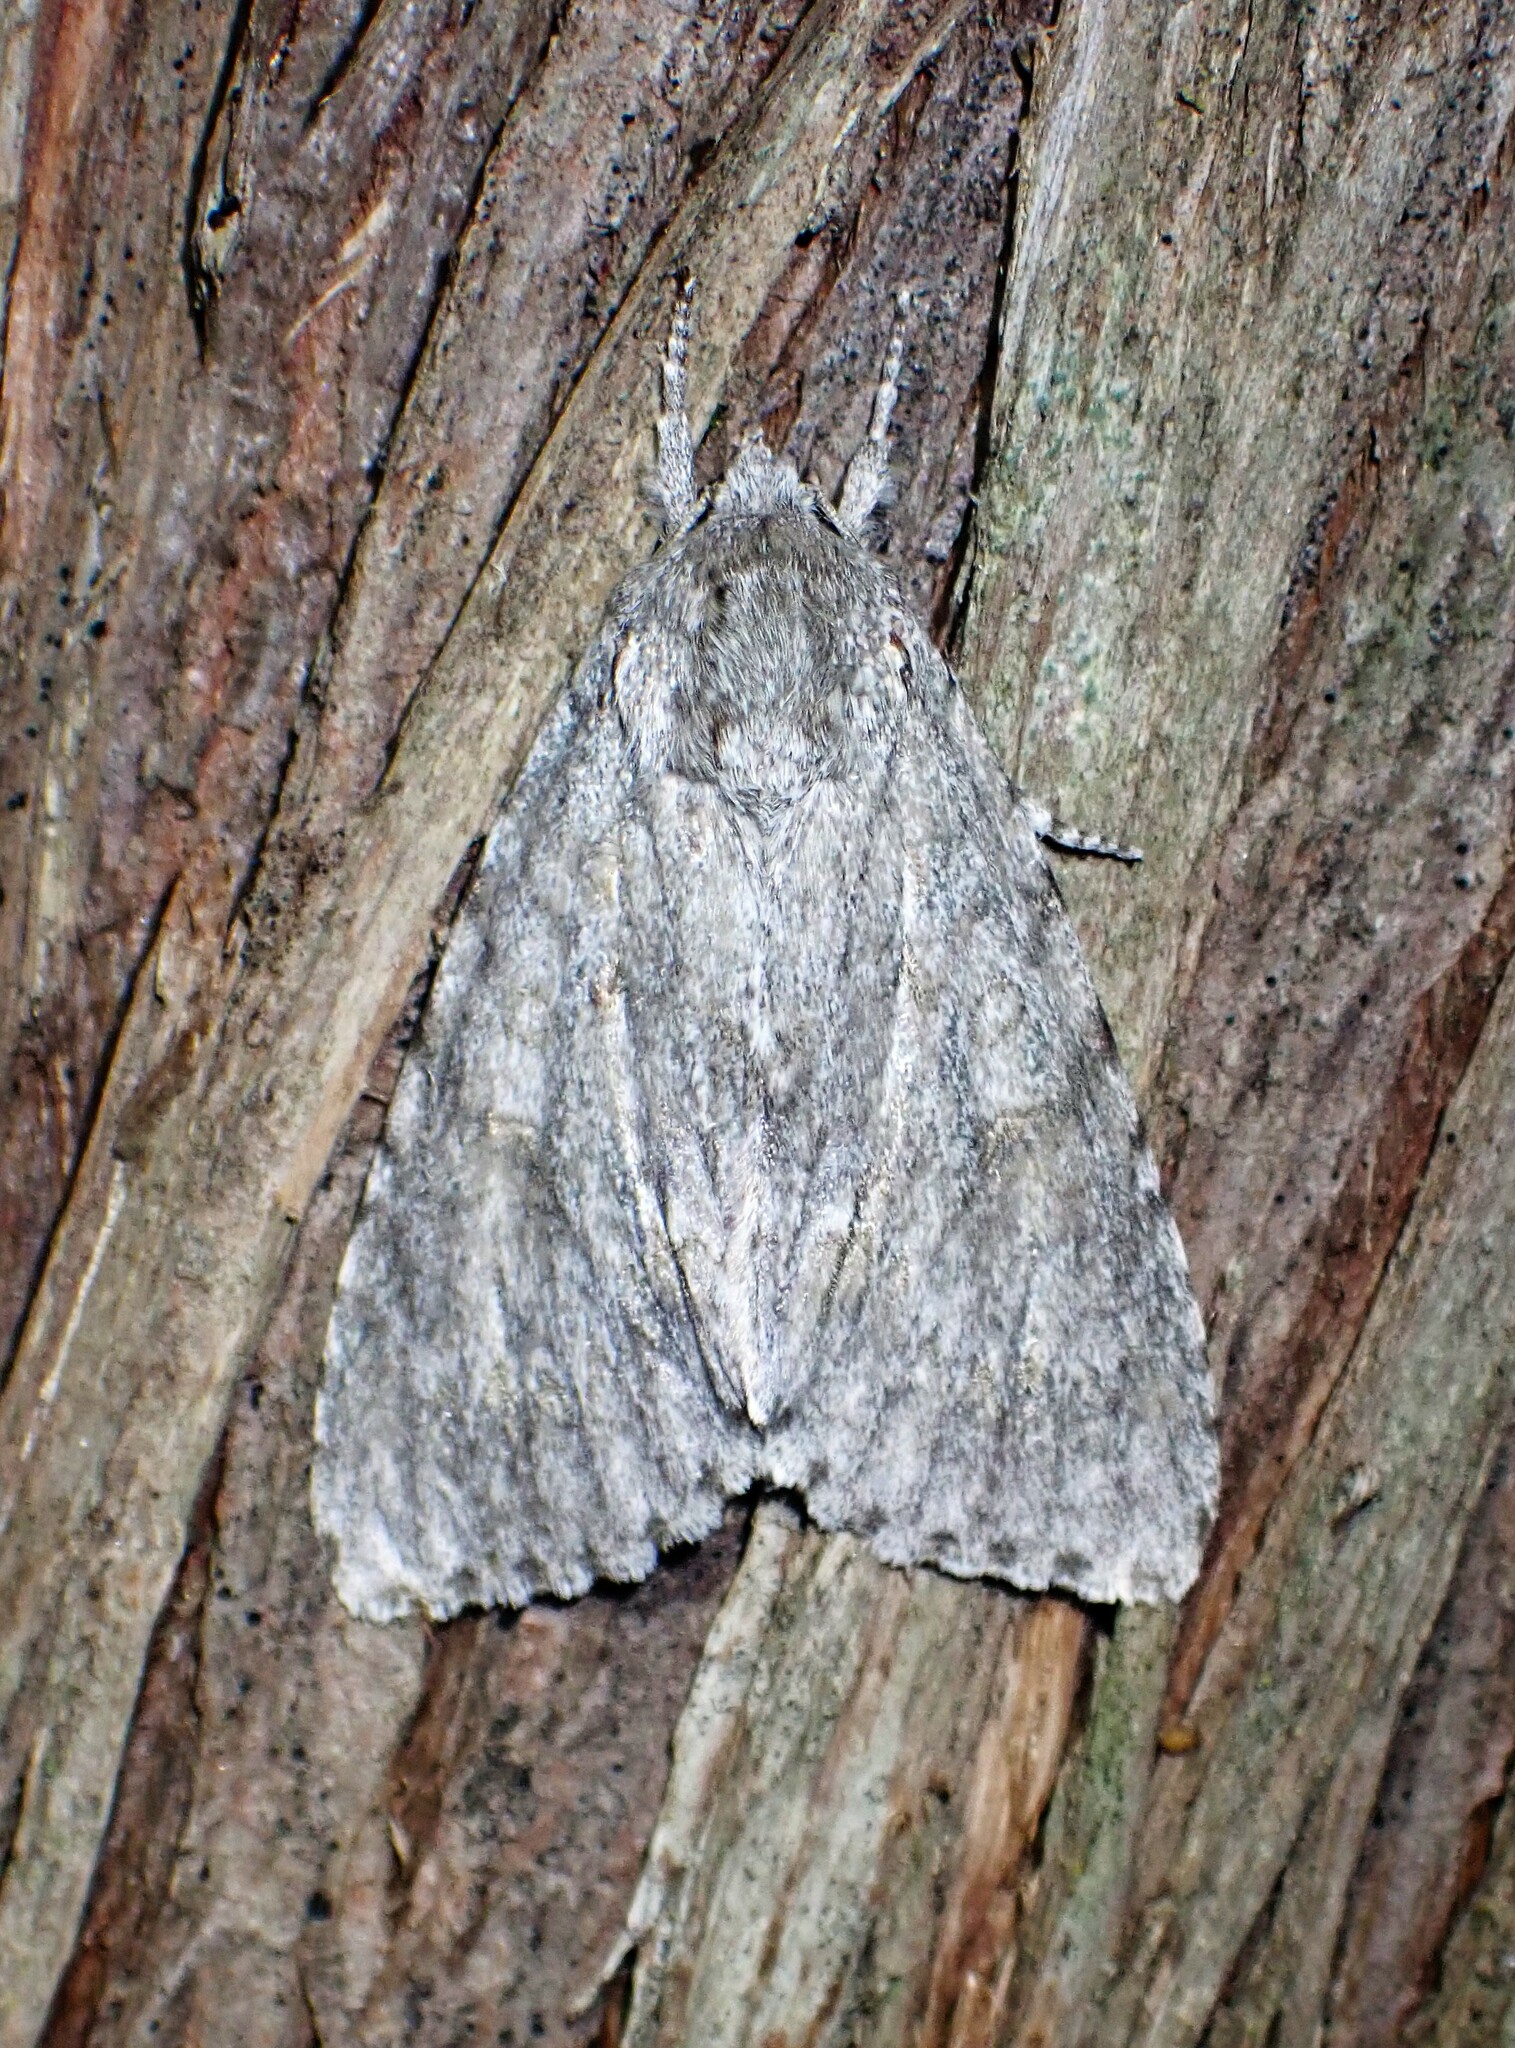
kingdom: Animalia
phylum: Arthropoda
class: Insecta
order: Lepidoptera
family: Noctuidae
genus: Acronicta
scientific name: Acronicta americana
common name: American dagger
